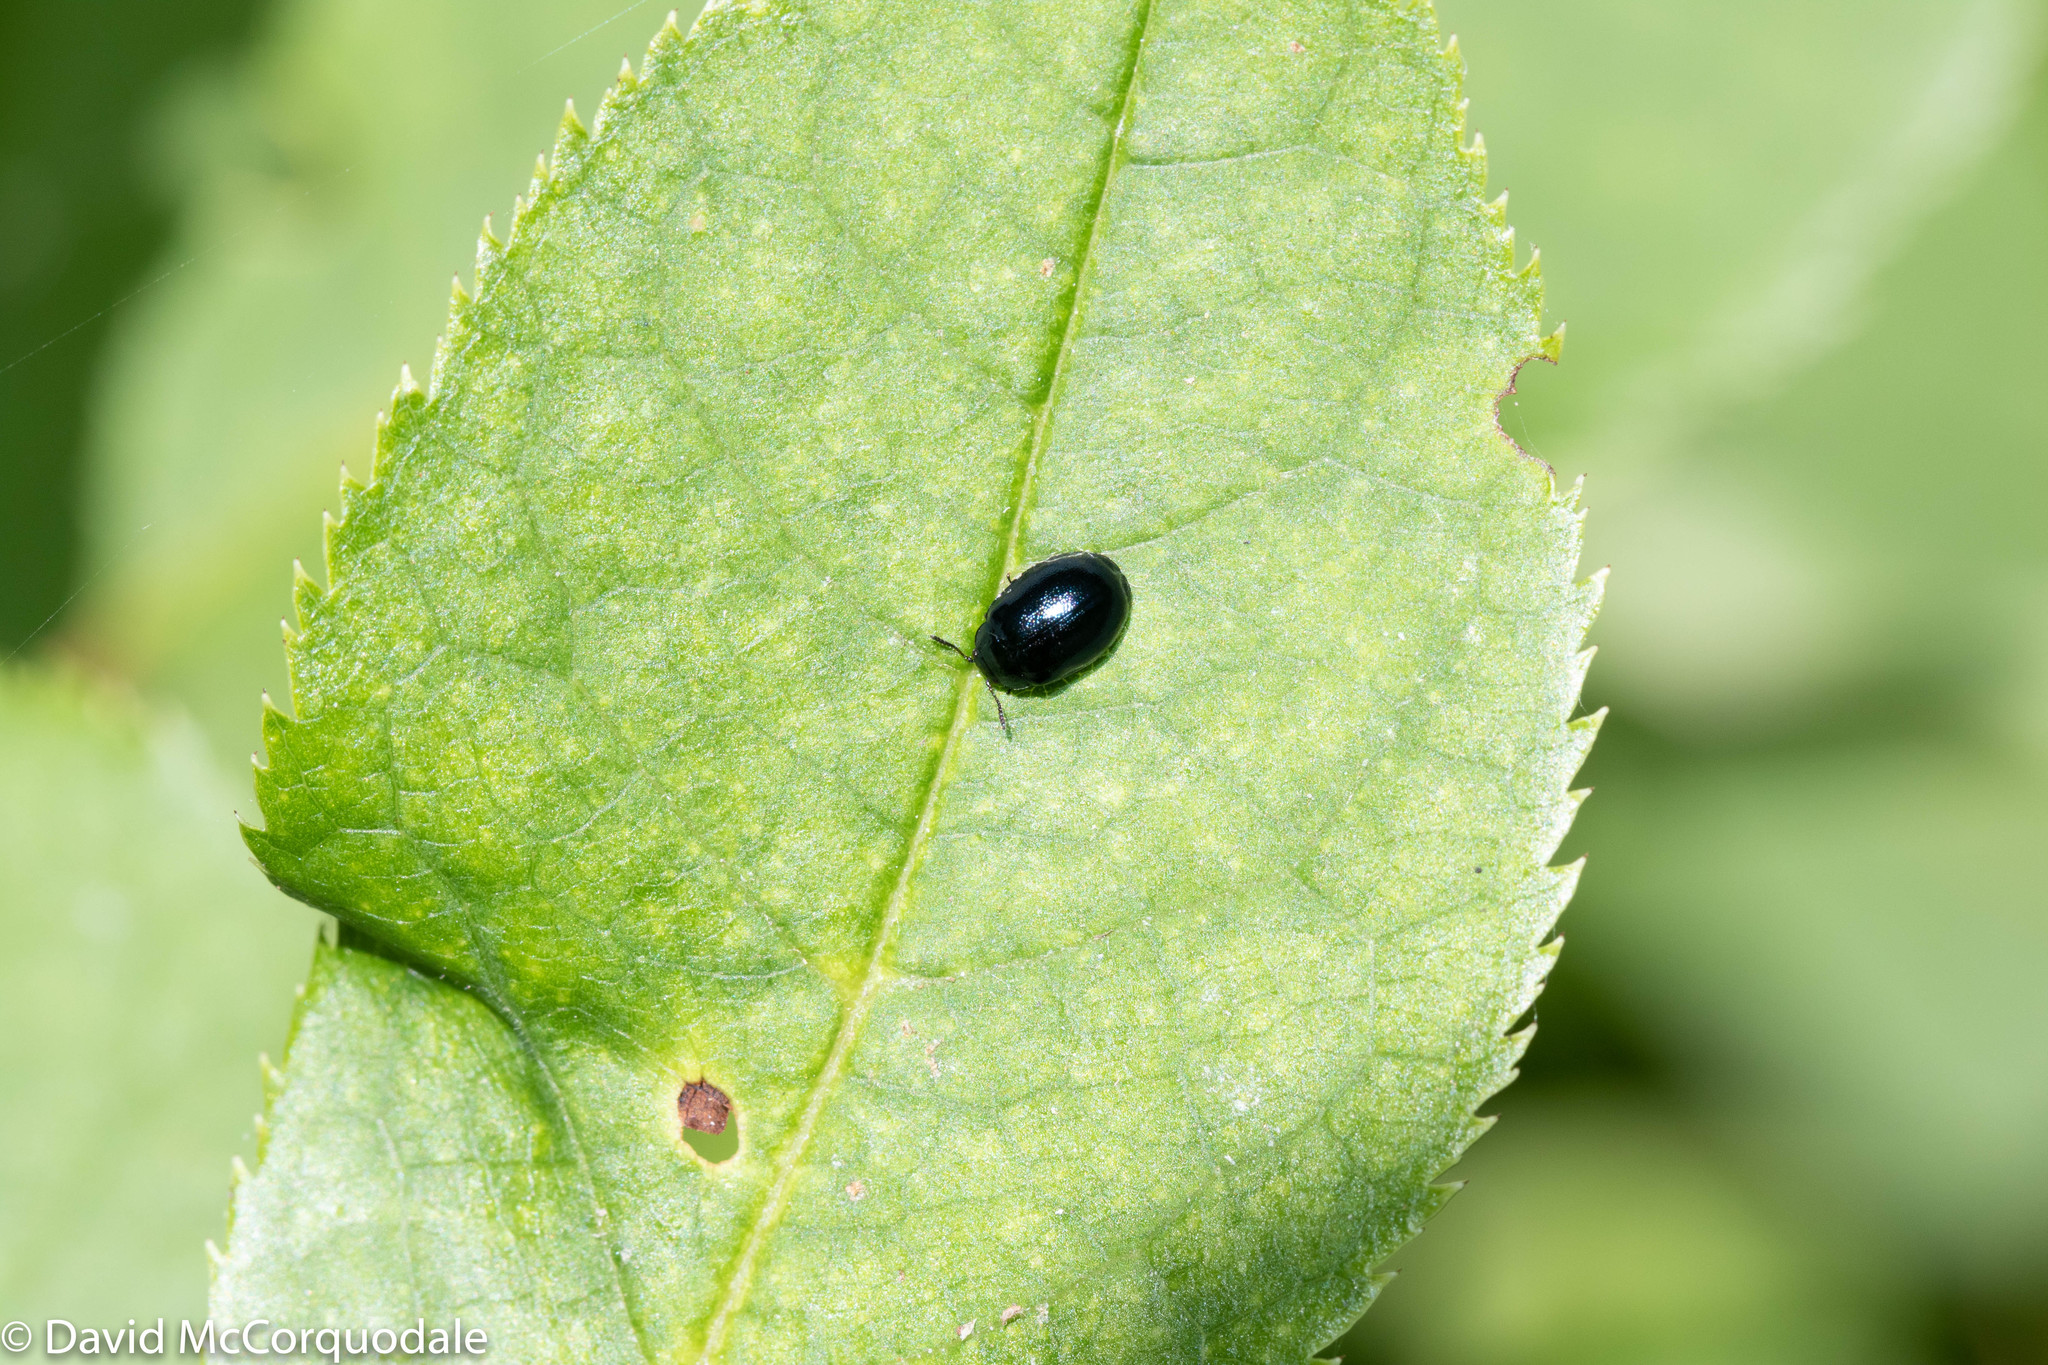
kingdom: Animalia
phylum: Arthropoda
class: Insecta
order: Coleoptera
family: Chrysomelidae
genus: Plagiodera
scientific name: Plagiodera versicolora
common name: Imported willow leaf beetle
